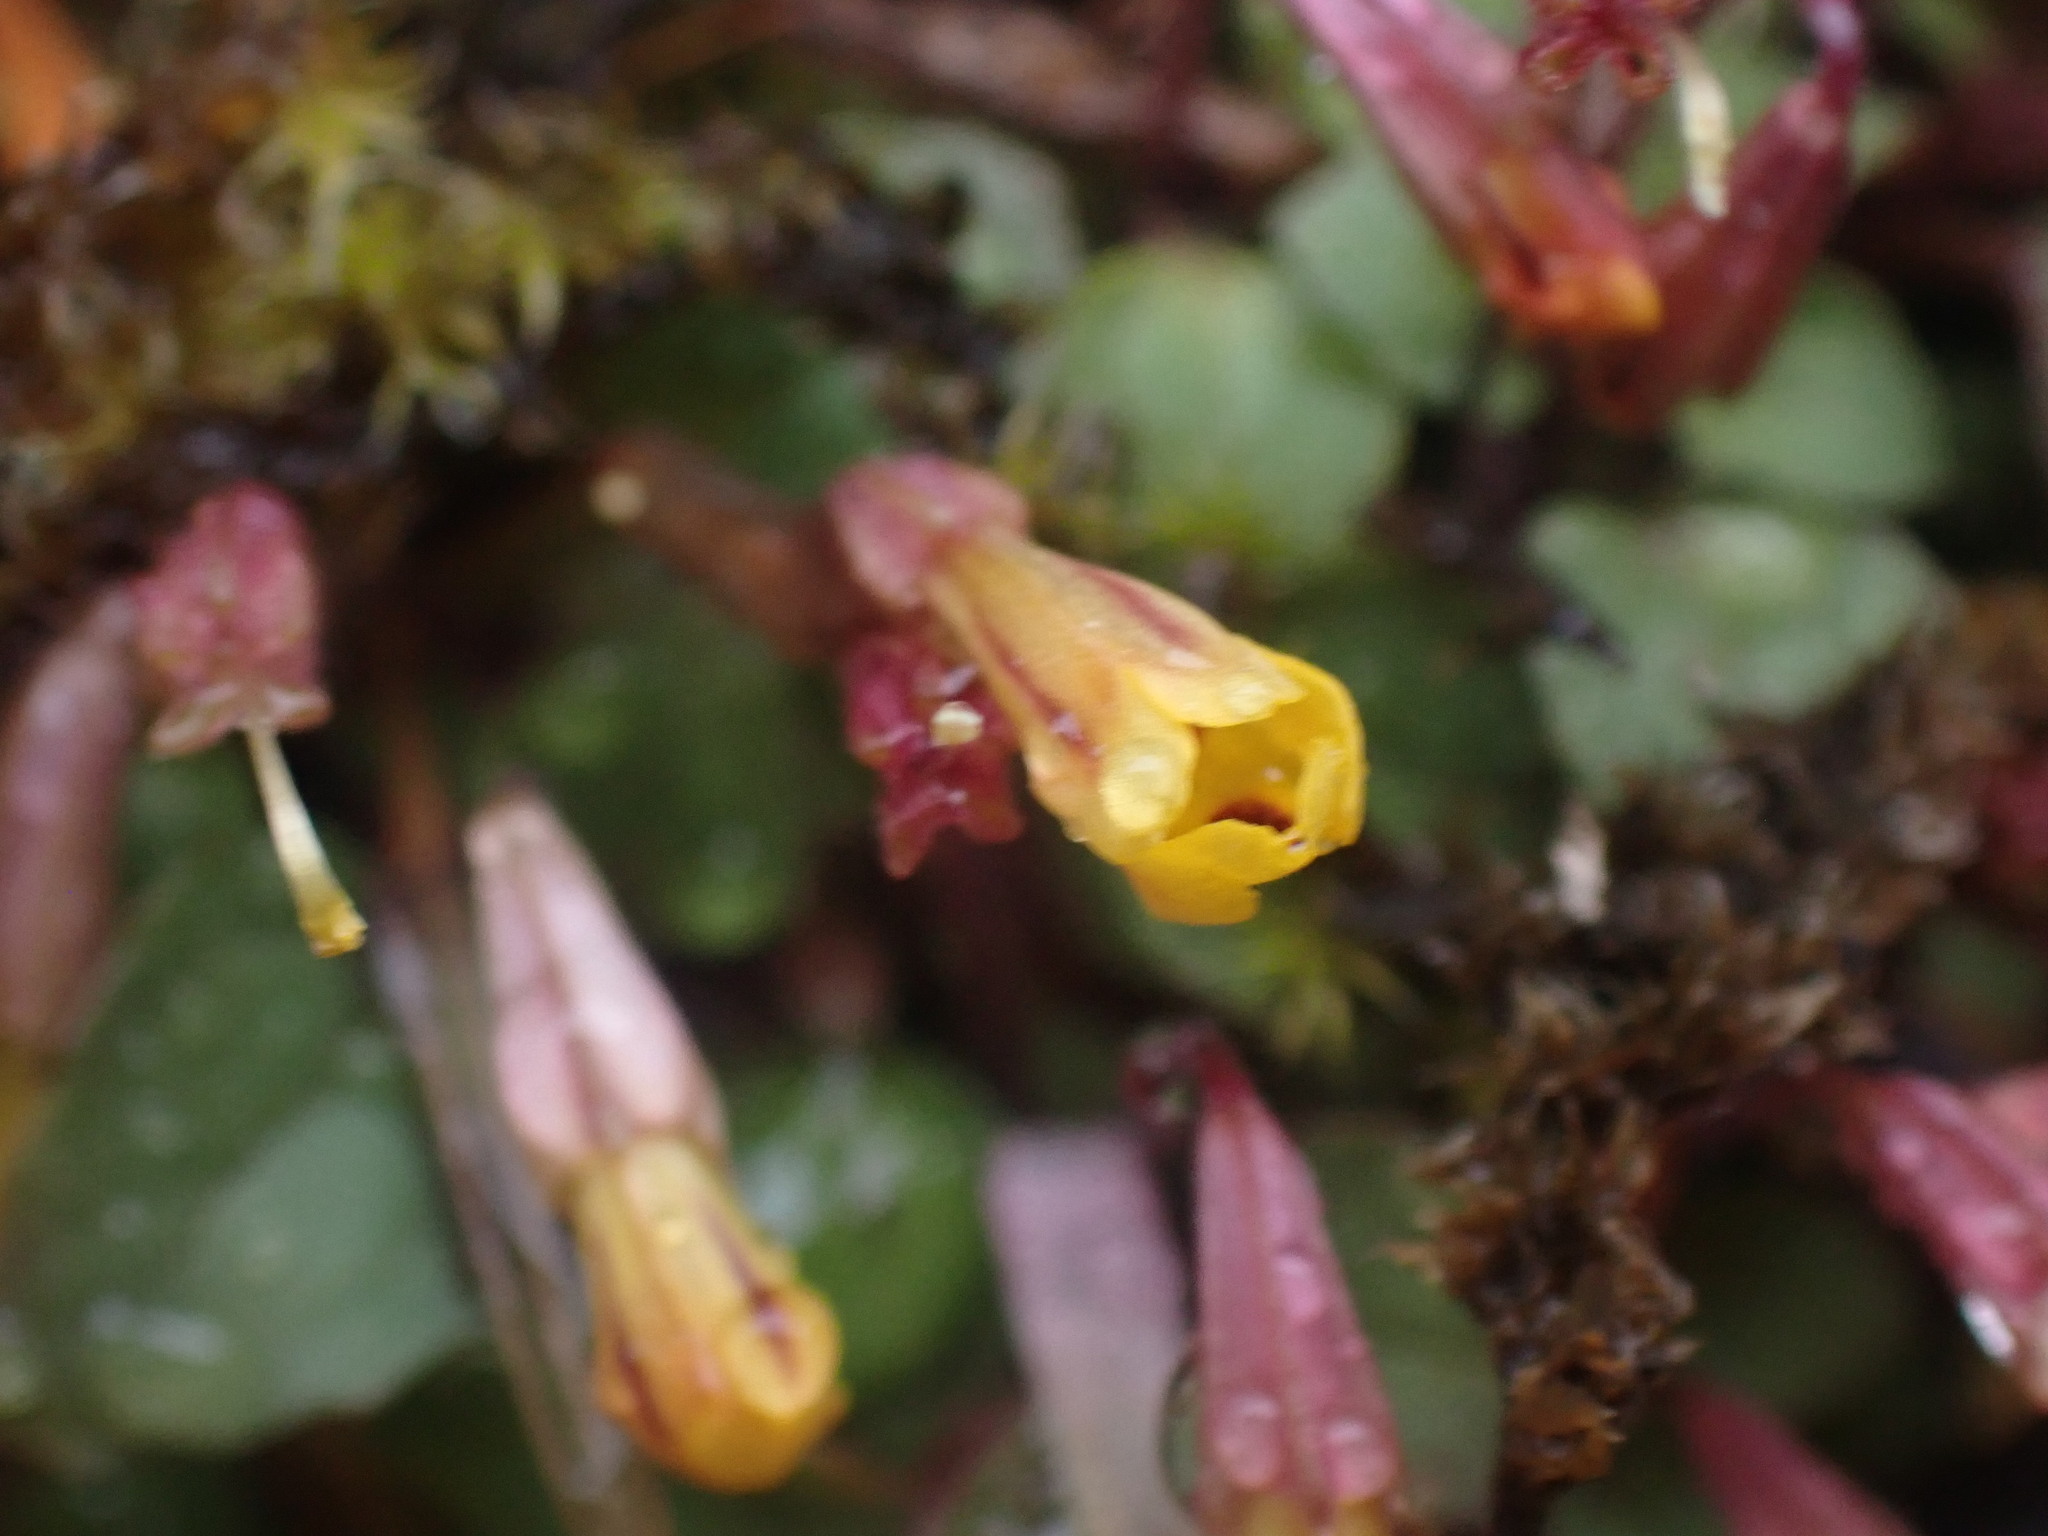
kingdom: Plantae
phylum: Tracheophyta
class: Magnoliopsida
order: Lamiales
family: Phrymaceae
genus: Erythranthe
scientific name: Erythranthe alsinoides
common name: Chickweed monkeyflower
